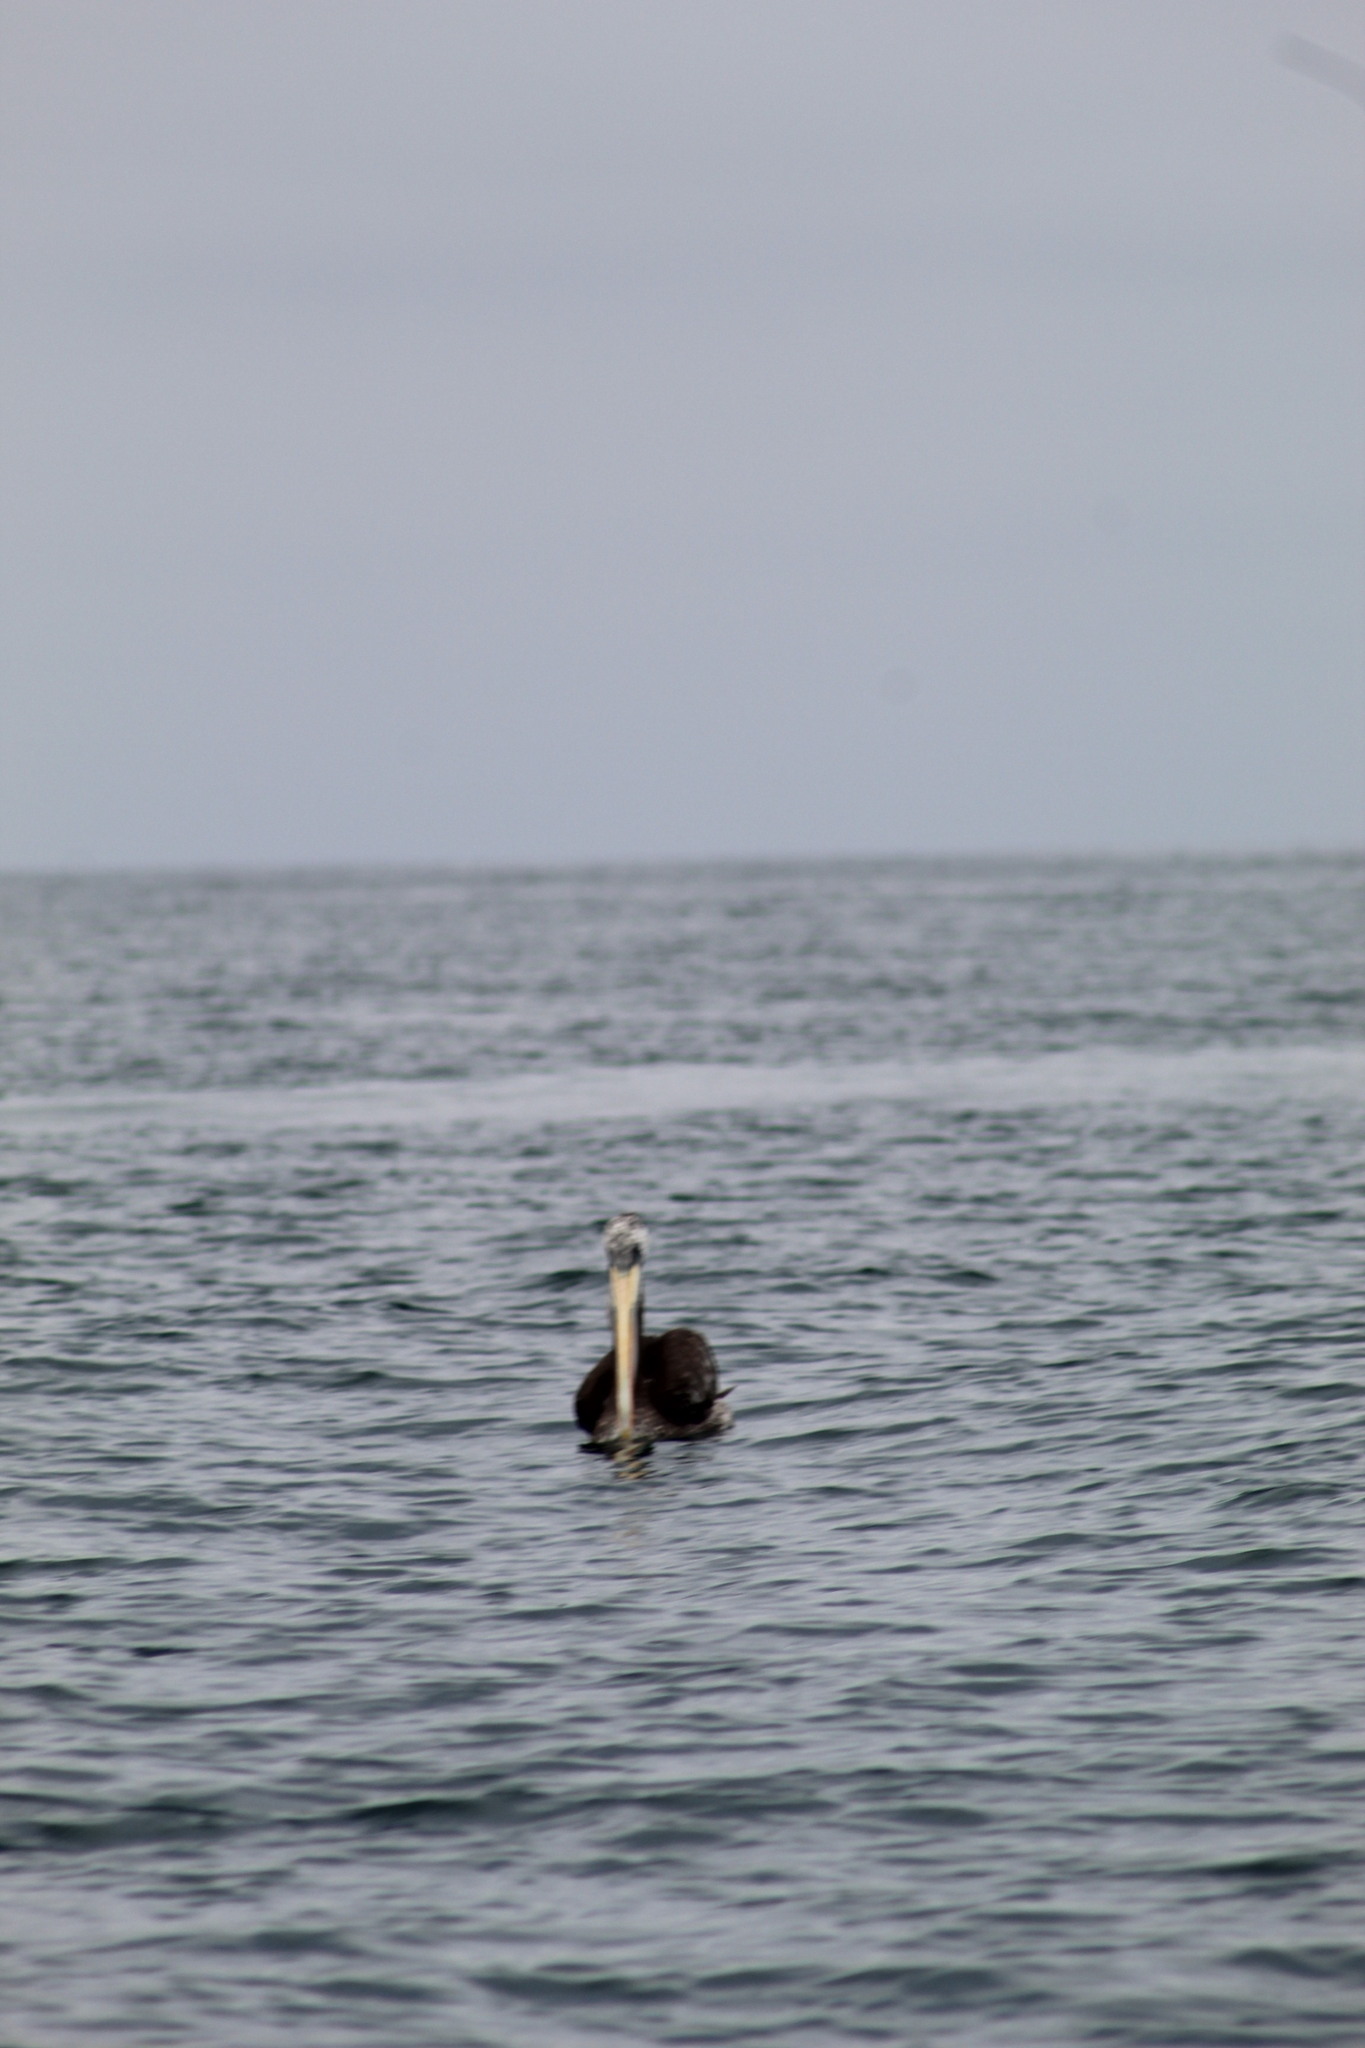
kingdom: Animalia
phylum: Chordata
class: Aves
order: Pelecaniformes
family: Pelecanidae
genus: Pelecanus
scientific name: Pelecanus thagus
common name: Peruvian pelican
